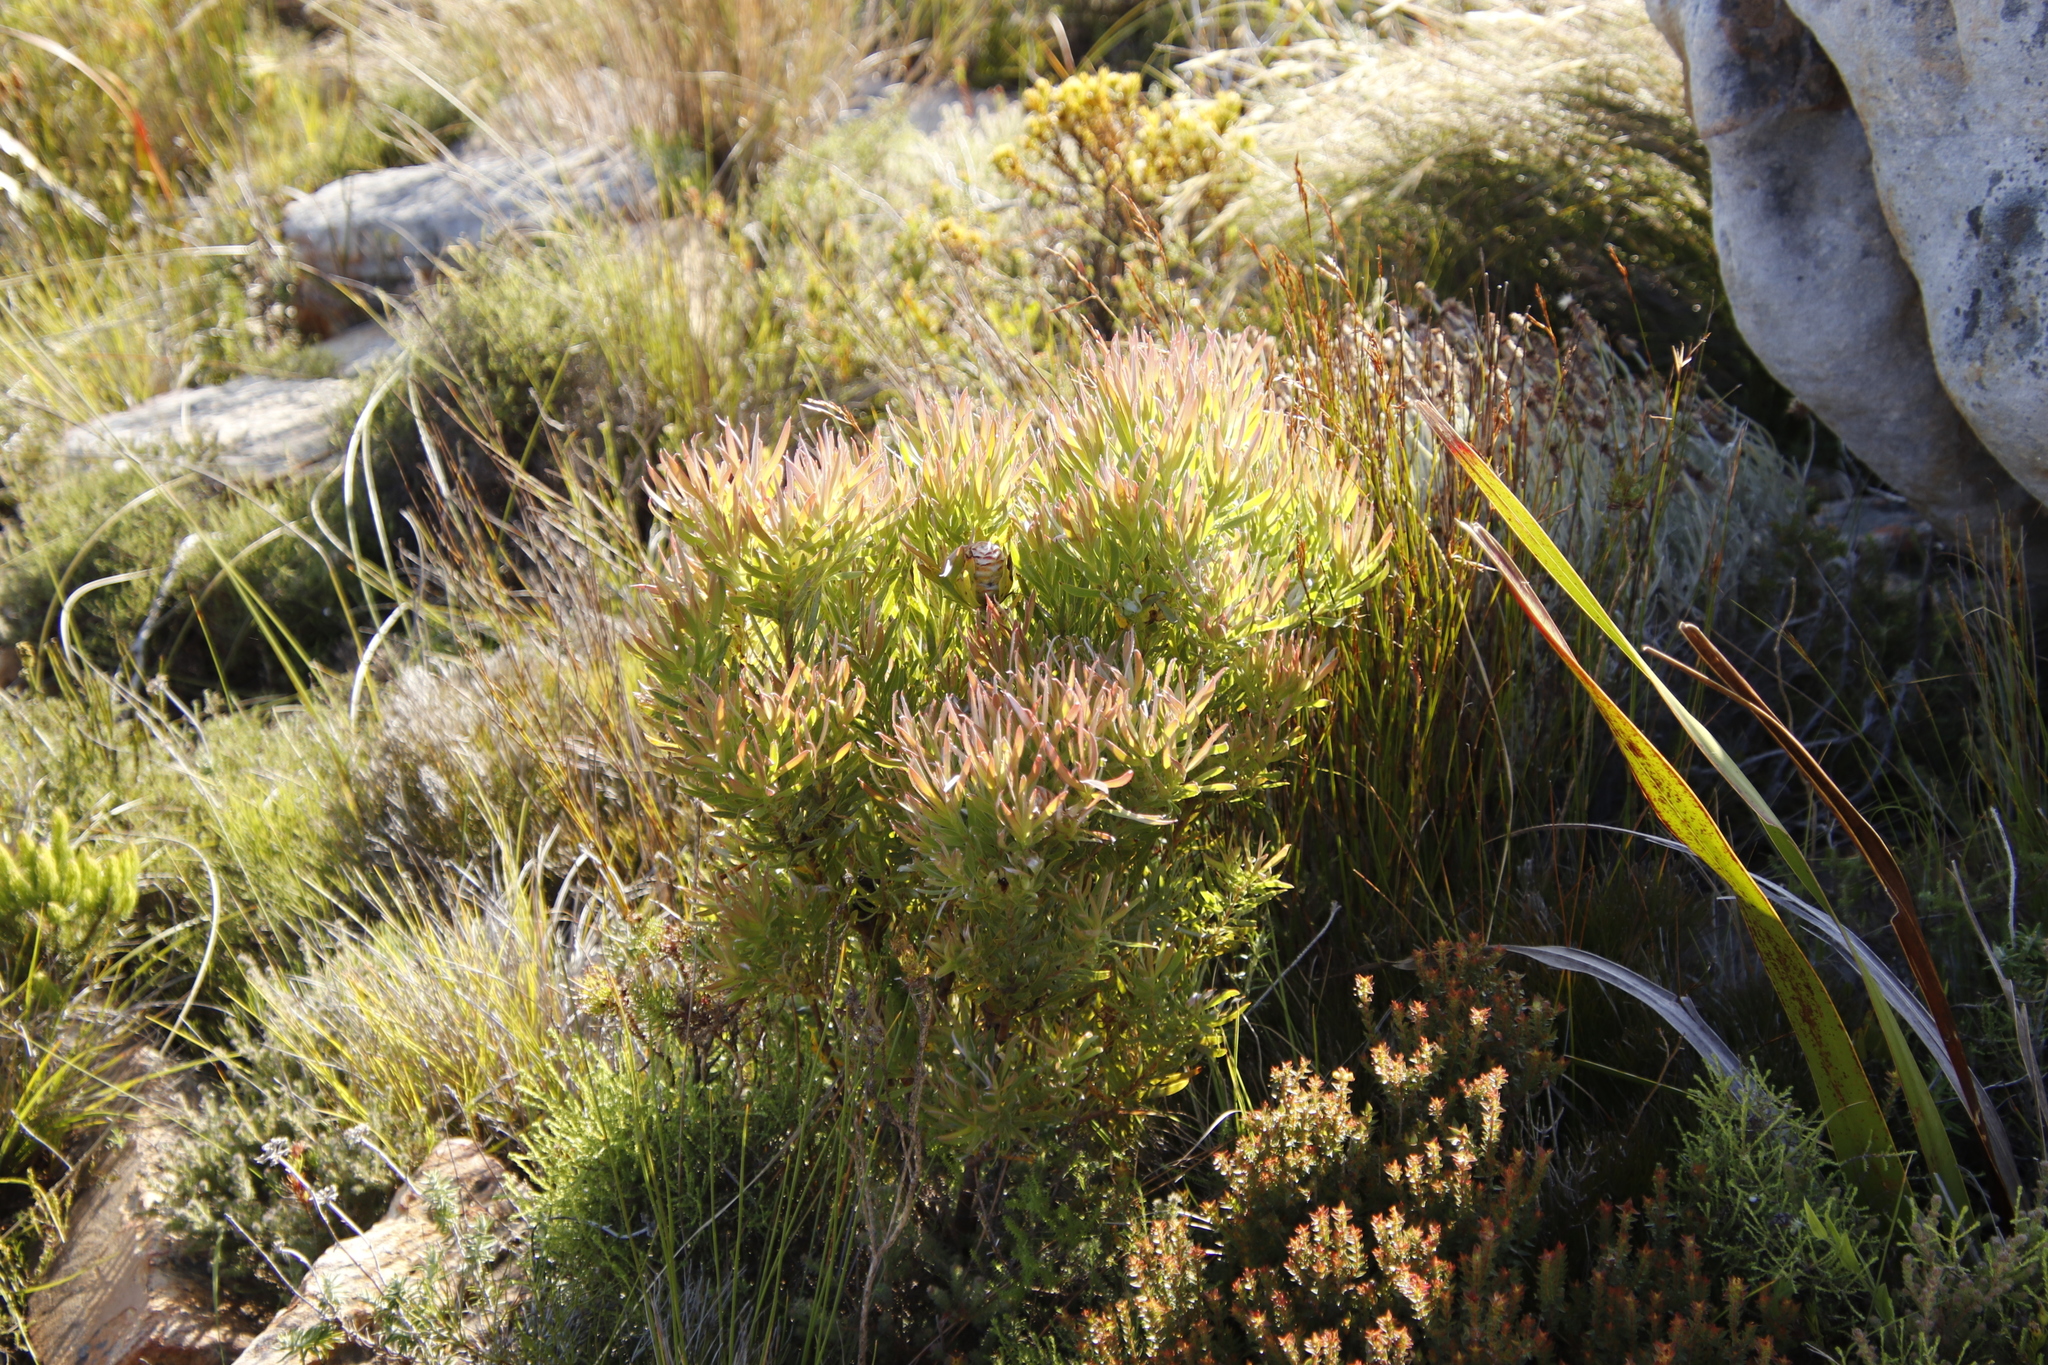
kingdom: Plantae
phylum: Tracheophyta
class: Magnoliopsida
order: Proteales
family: Proteaceae
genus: Leucadendron
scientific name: Leucadendron xanthoconus
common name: Sickle-leaf conebush
